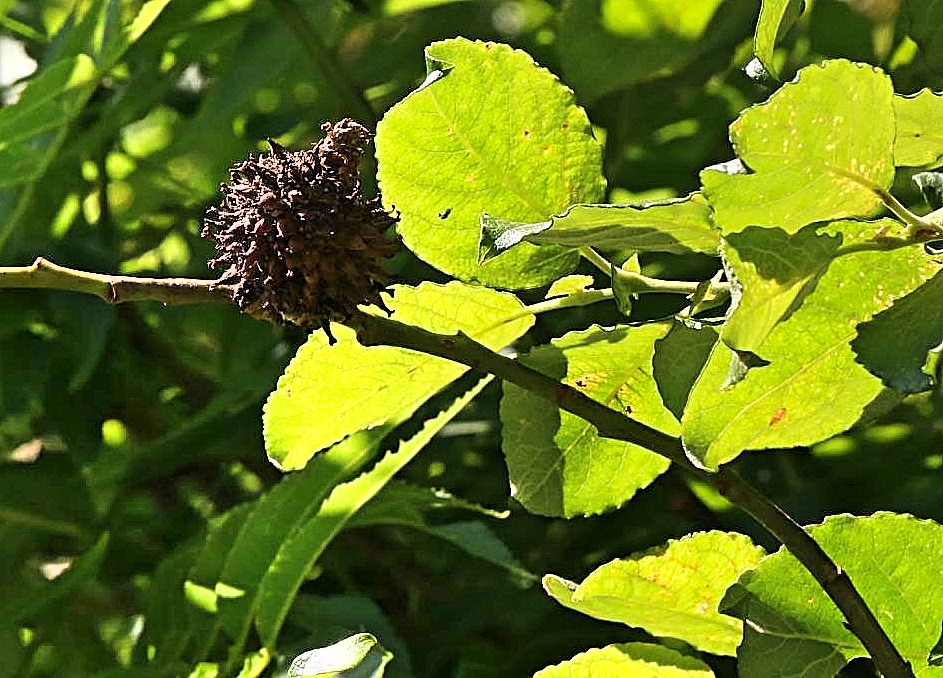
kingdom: Animalia
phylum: Arthropoda
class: Insecta
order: Diptera
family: Cecidomyiidae
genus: Dasineura
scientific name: Dasineura strobilina
